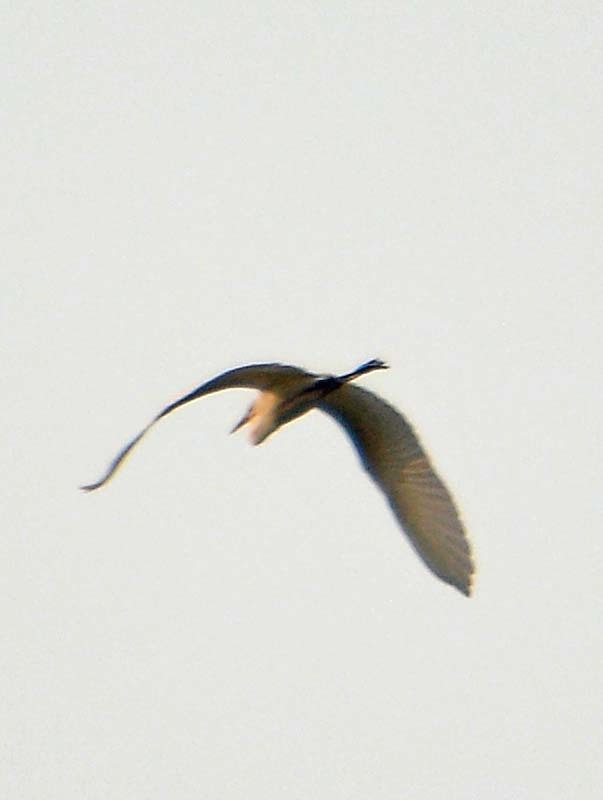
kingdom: Animalia
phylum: Chordata
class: Aves
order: Pelecaniformes
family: Ardeidae
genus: Ardea
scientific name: Ardea alba
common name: Great egret
